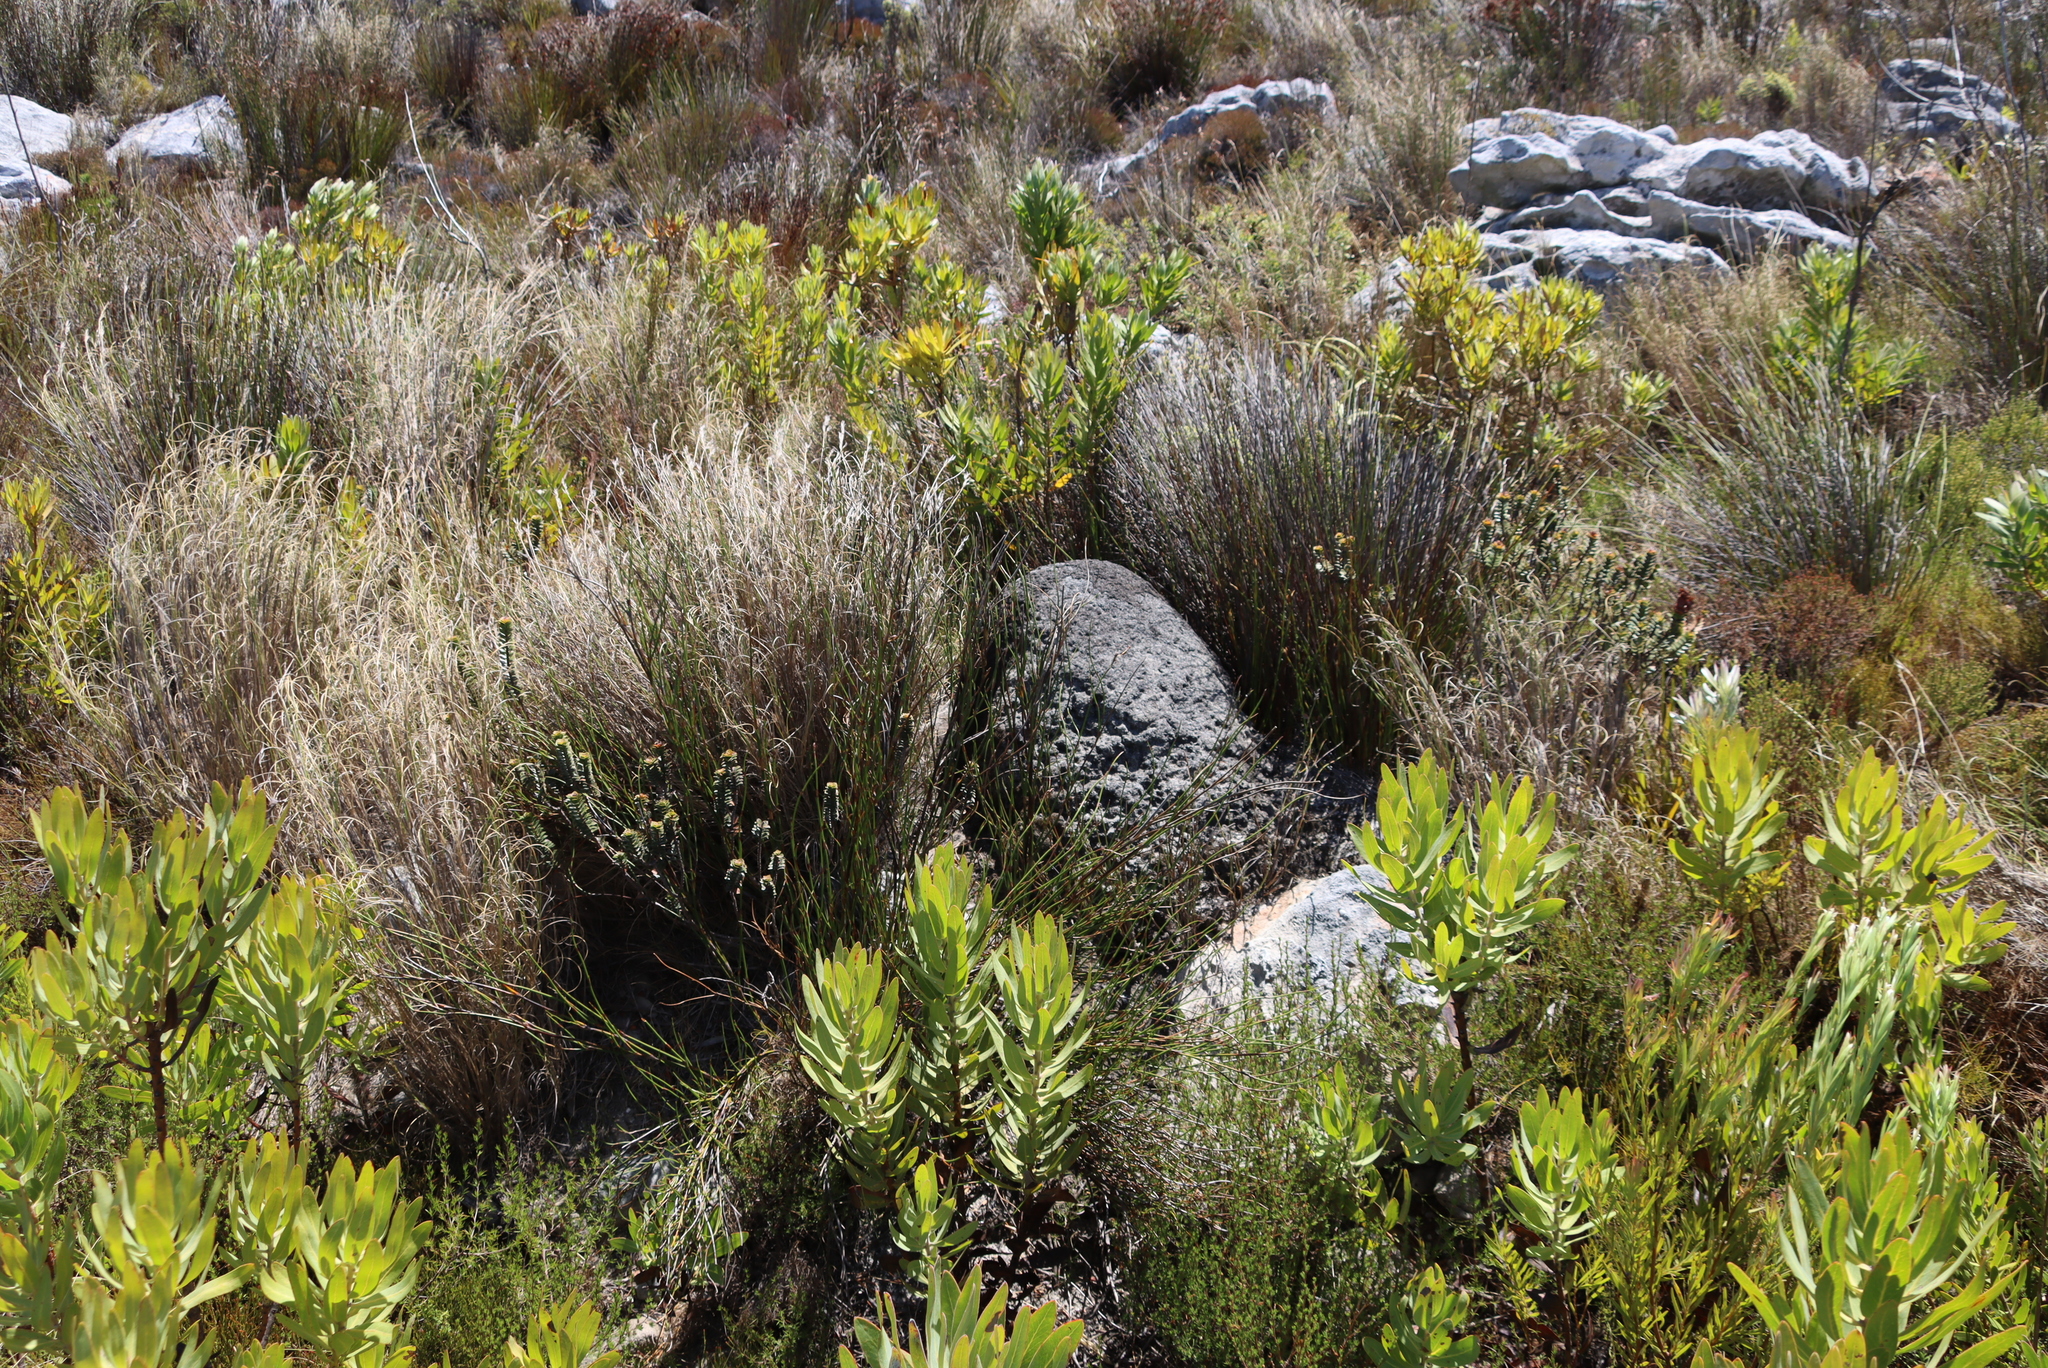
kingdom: Animalia
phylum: Arthropoda
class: Insecta
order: Blattodea
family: Termitidae
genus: Amitermes
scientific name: Amitermes hastatus
